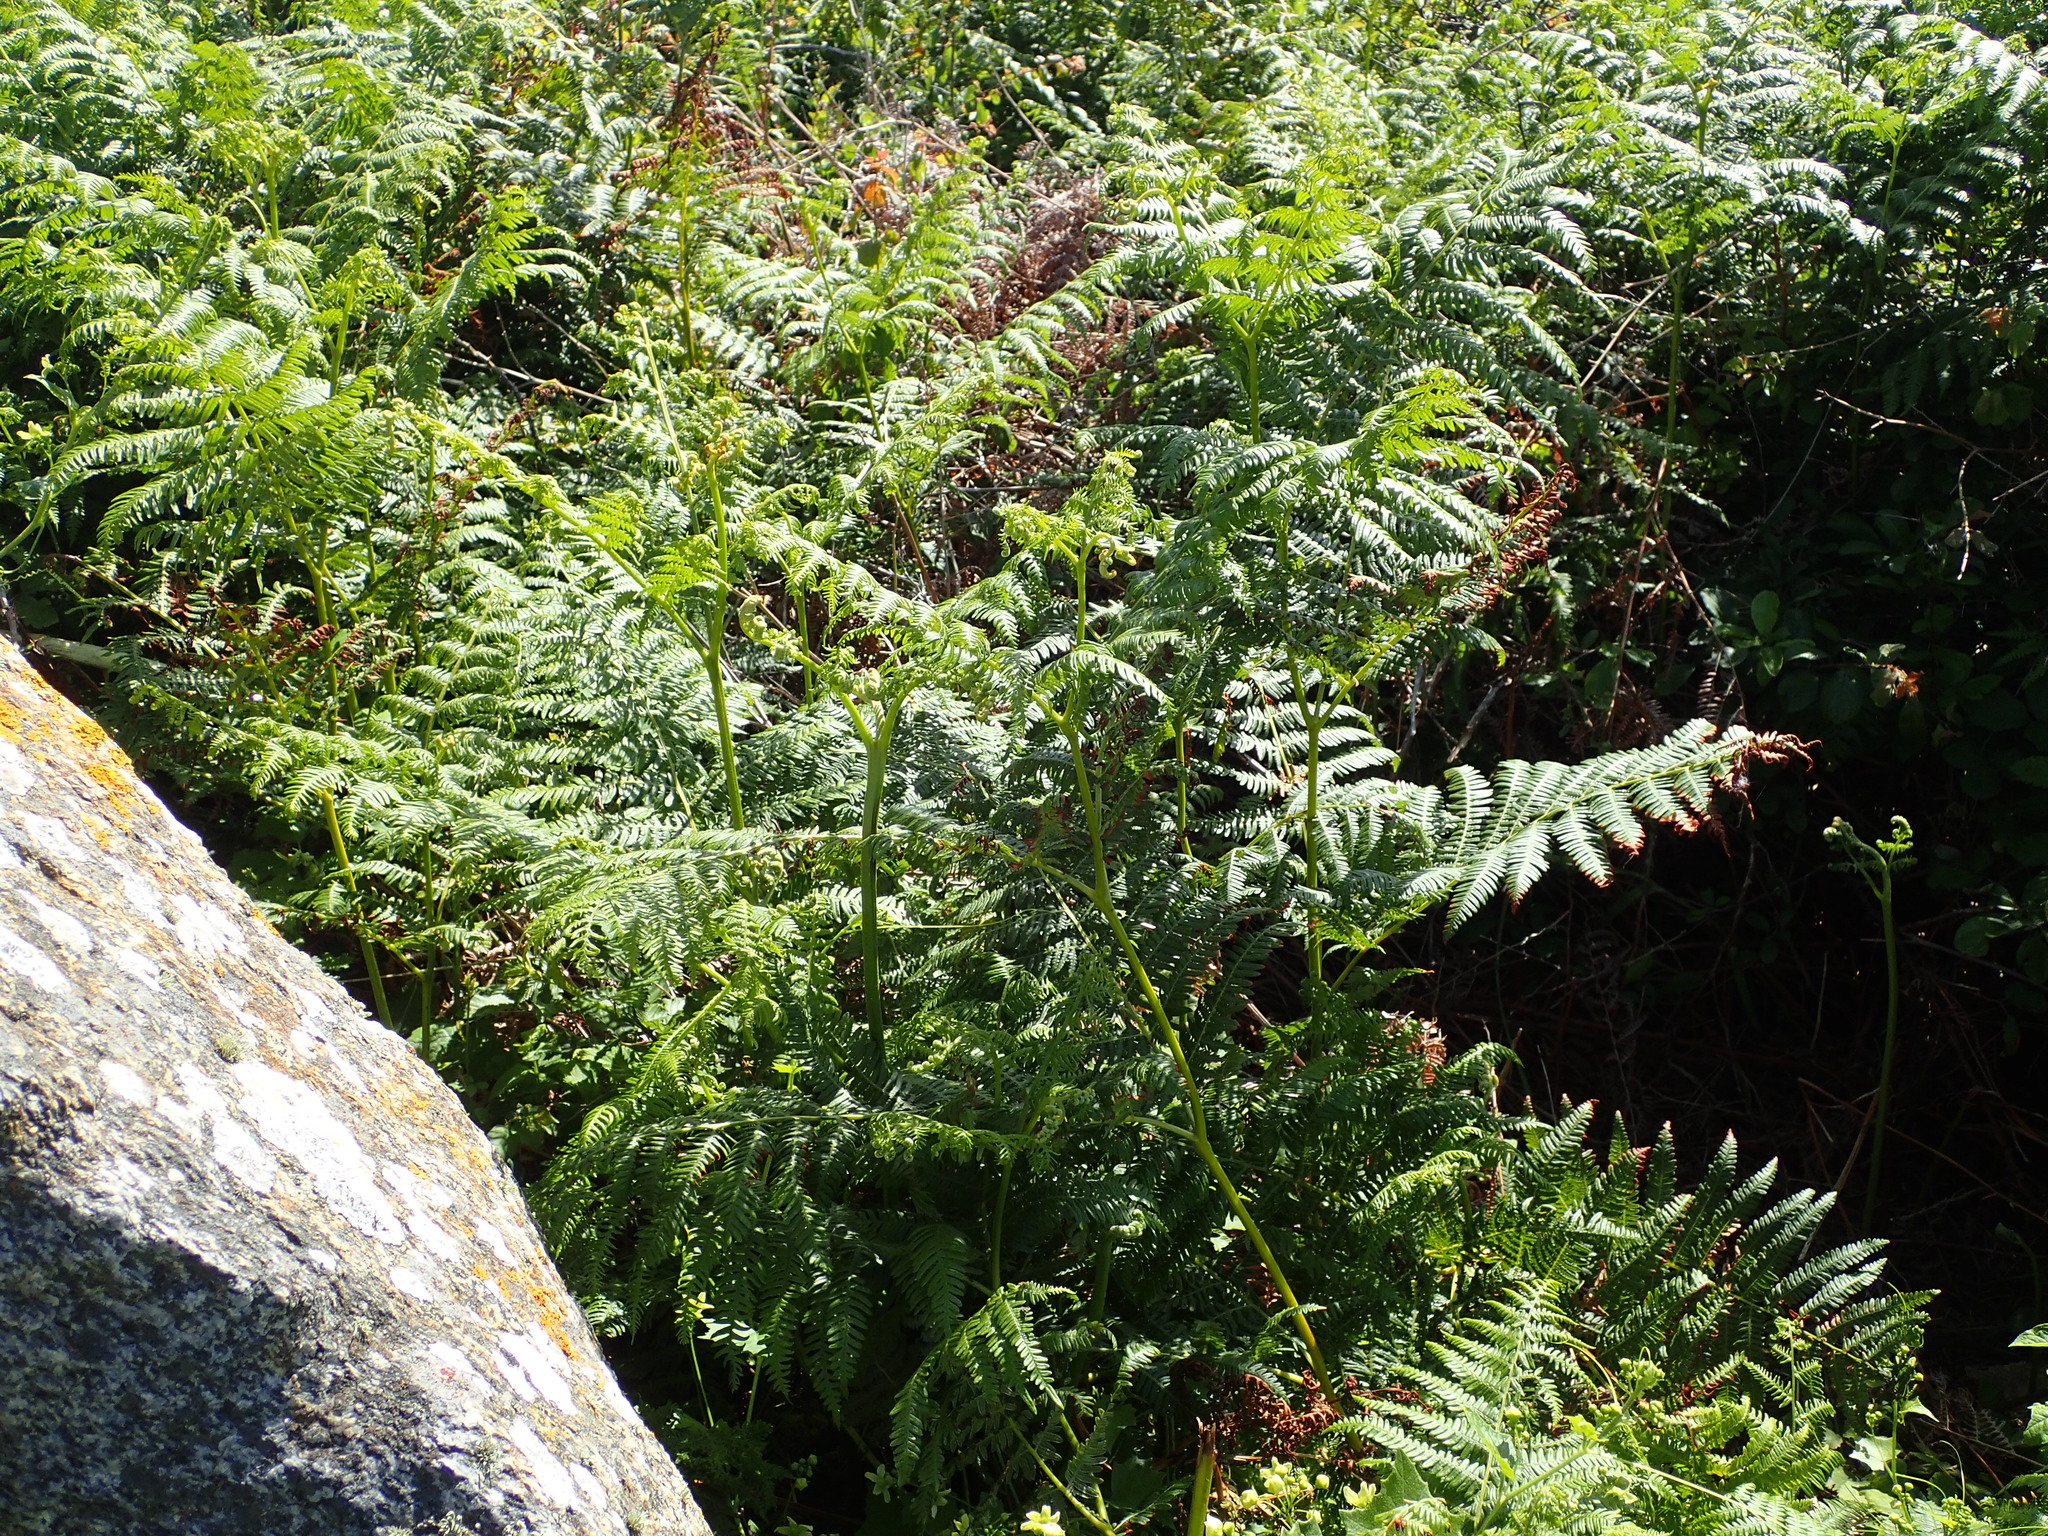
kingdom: Plantae
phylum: Tracheophyta
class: Polypodiopsida
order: Polypodiales
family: Dennstaedtiaceae
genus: Pteridium
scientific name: Pteridium aquilinum
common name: Bracken
